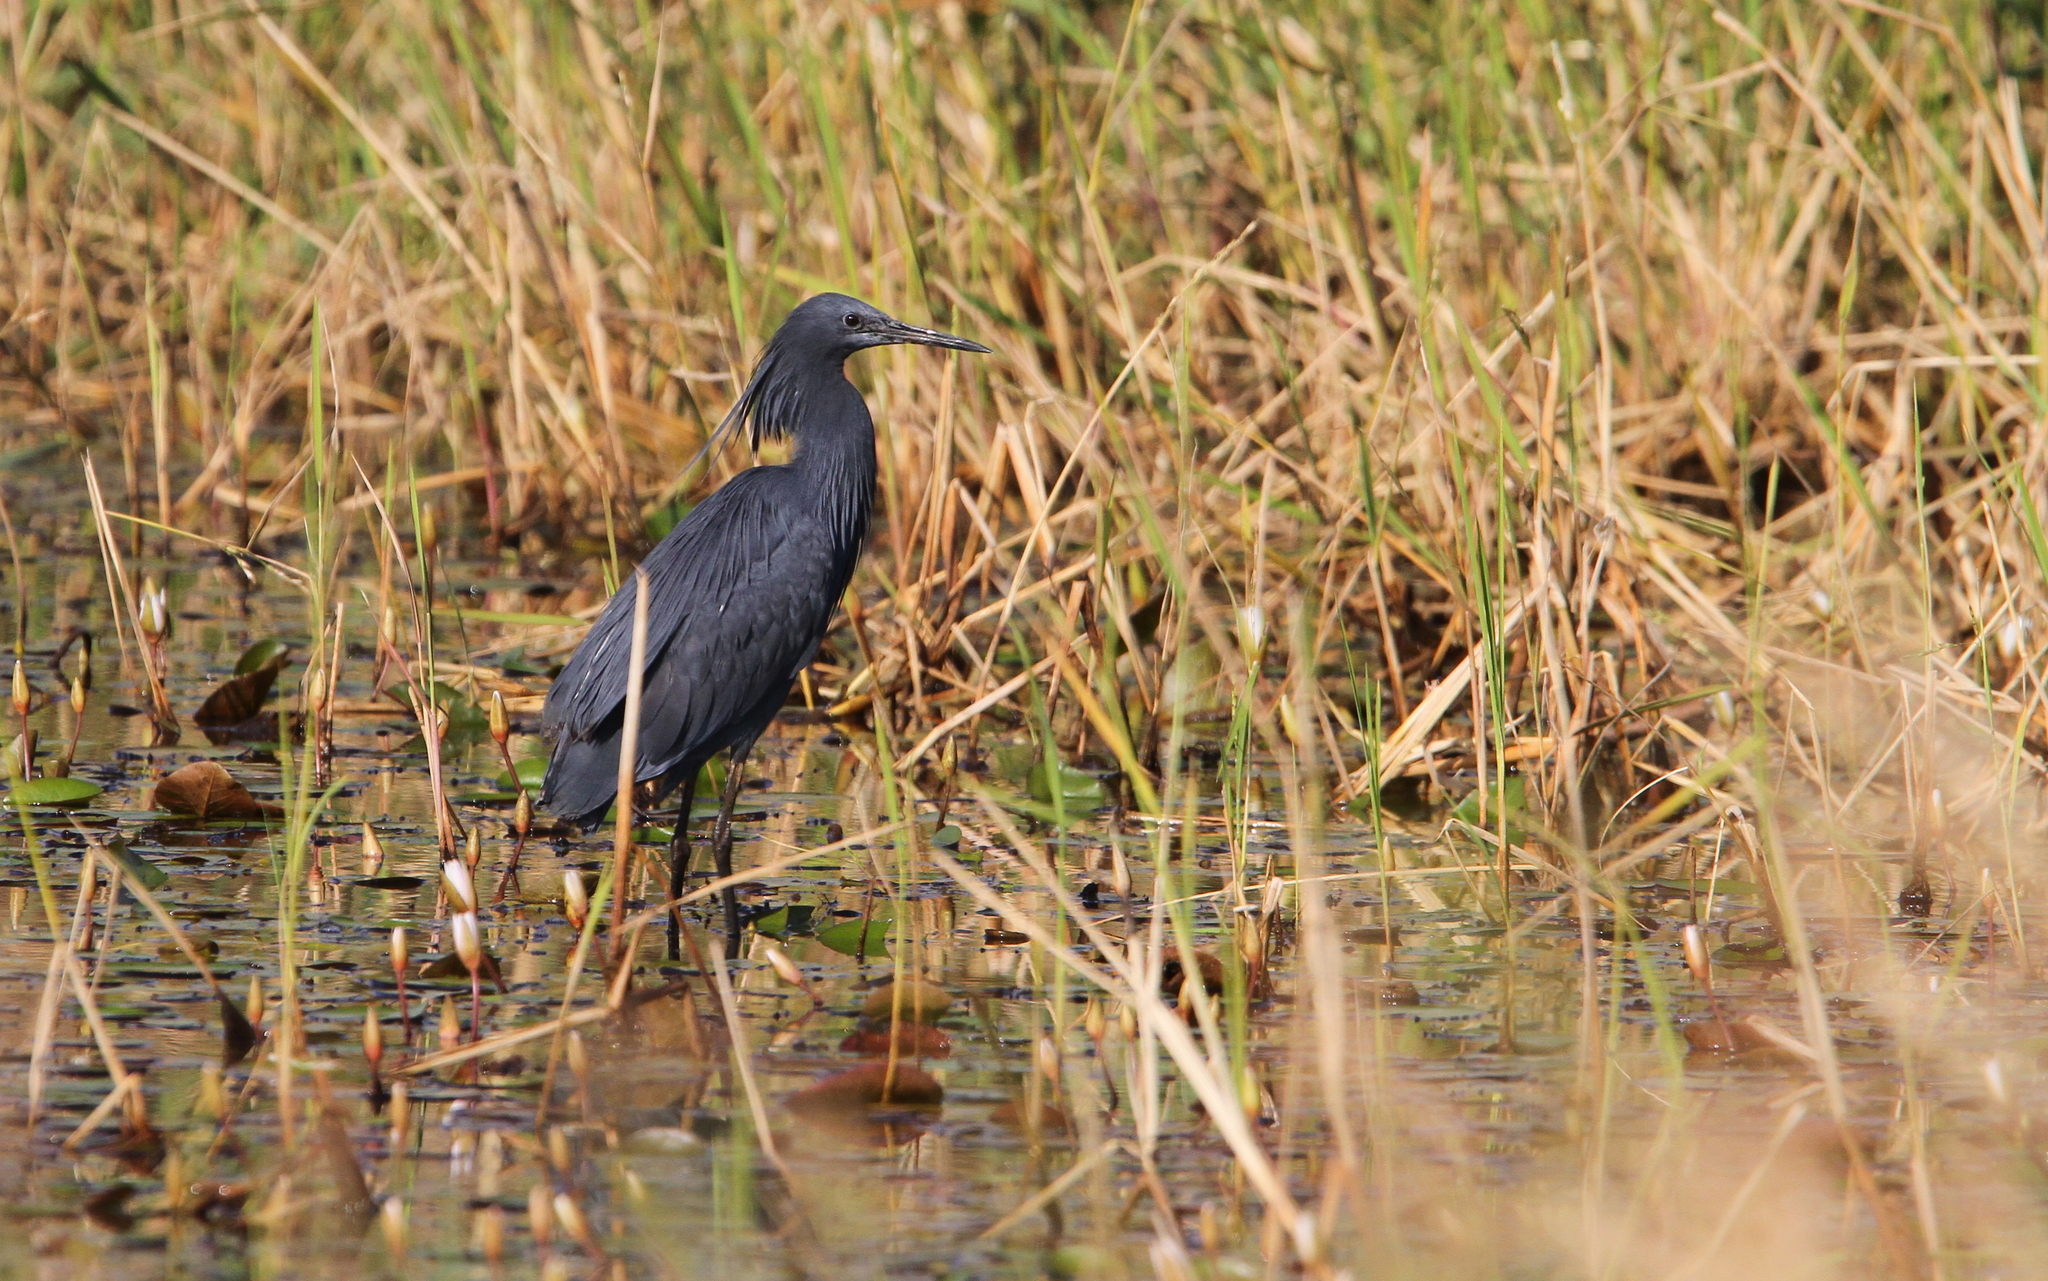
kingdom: Animalia
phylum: Chordata
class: Aves
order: Pelecaniformes
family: Ardeidae
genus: Egretta
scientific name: Egretta ardesiaca
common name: Black heron
